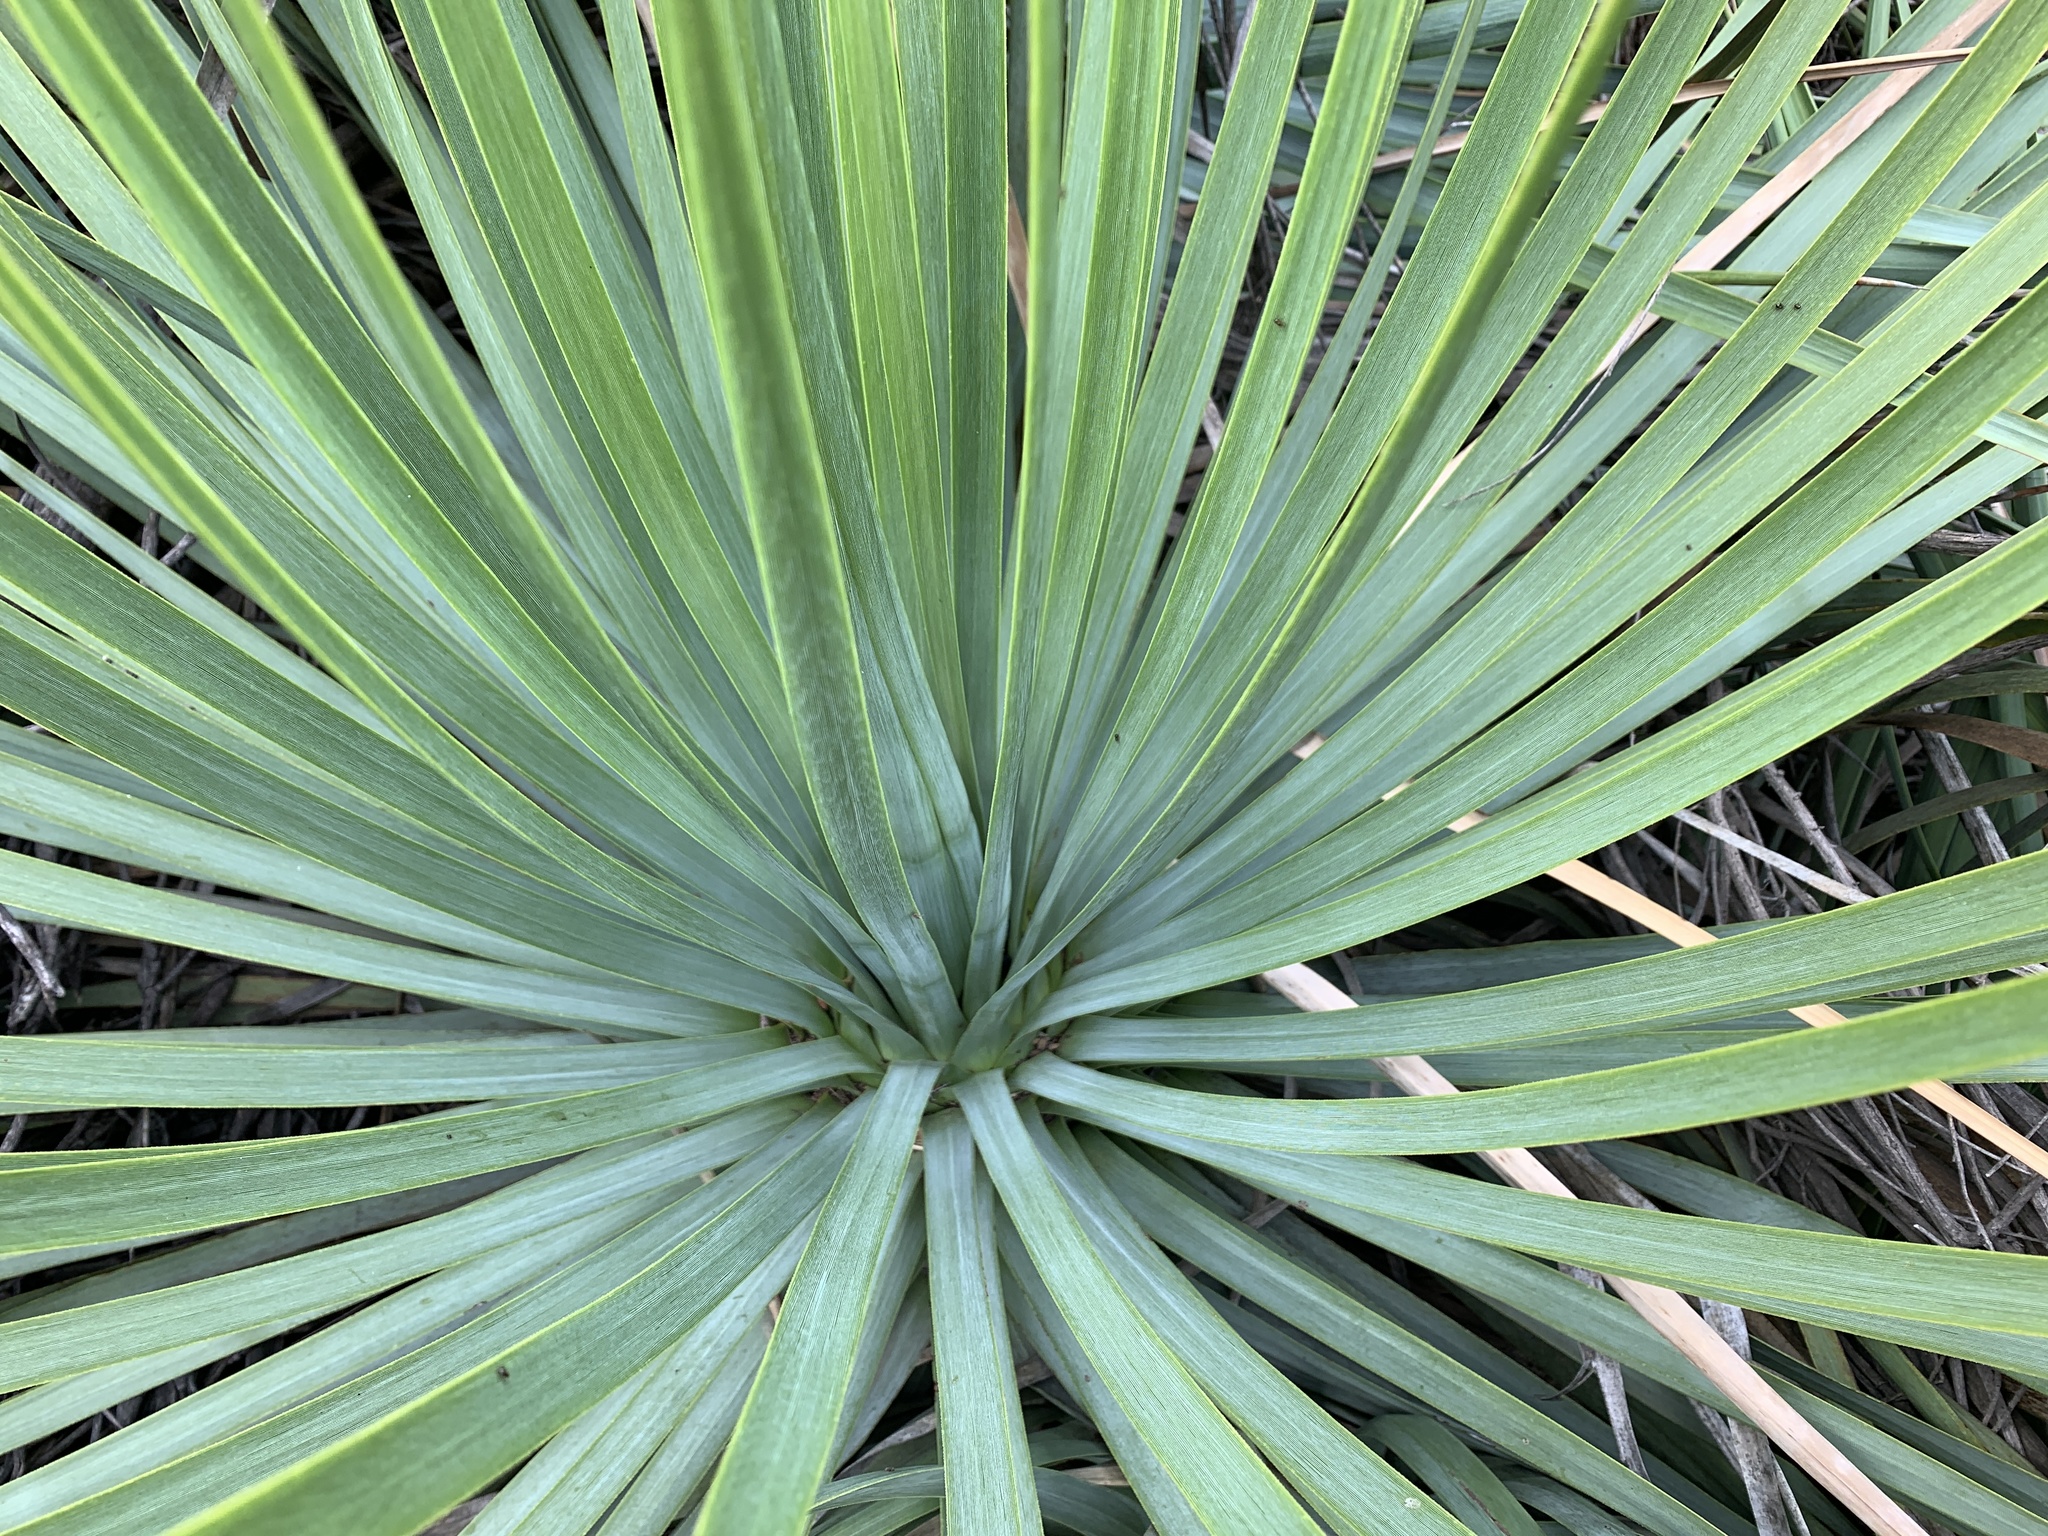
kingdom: Plantae
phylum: Tracheophyta
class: Liliopsida
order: Asparagales
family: Asparagaceae
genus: Hesperoyucca
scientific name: Hesperoyucca whipplei
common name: Our lord's-candle
